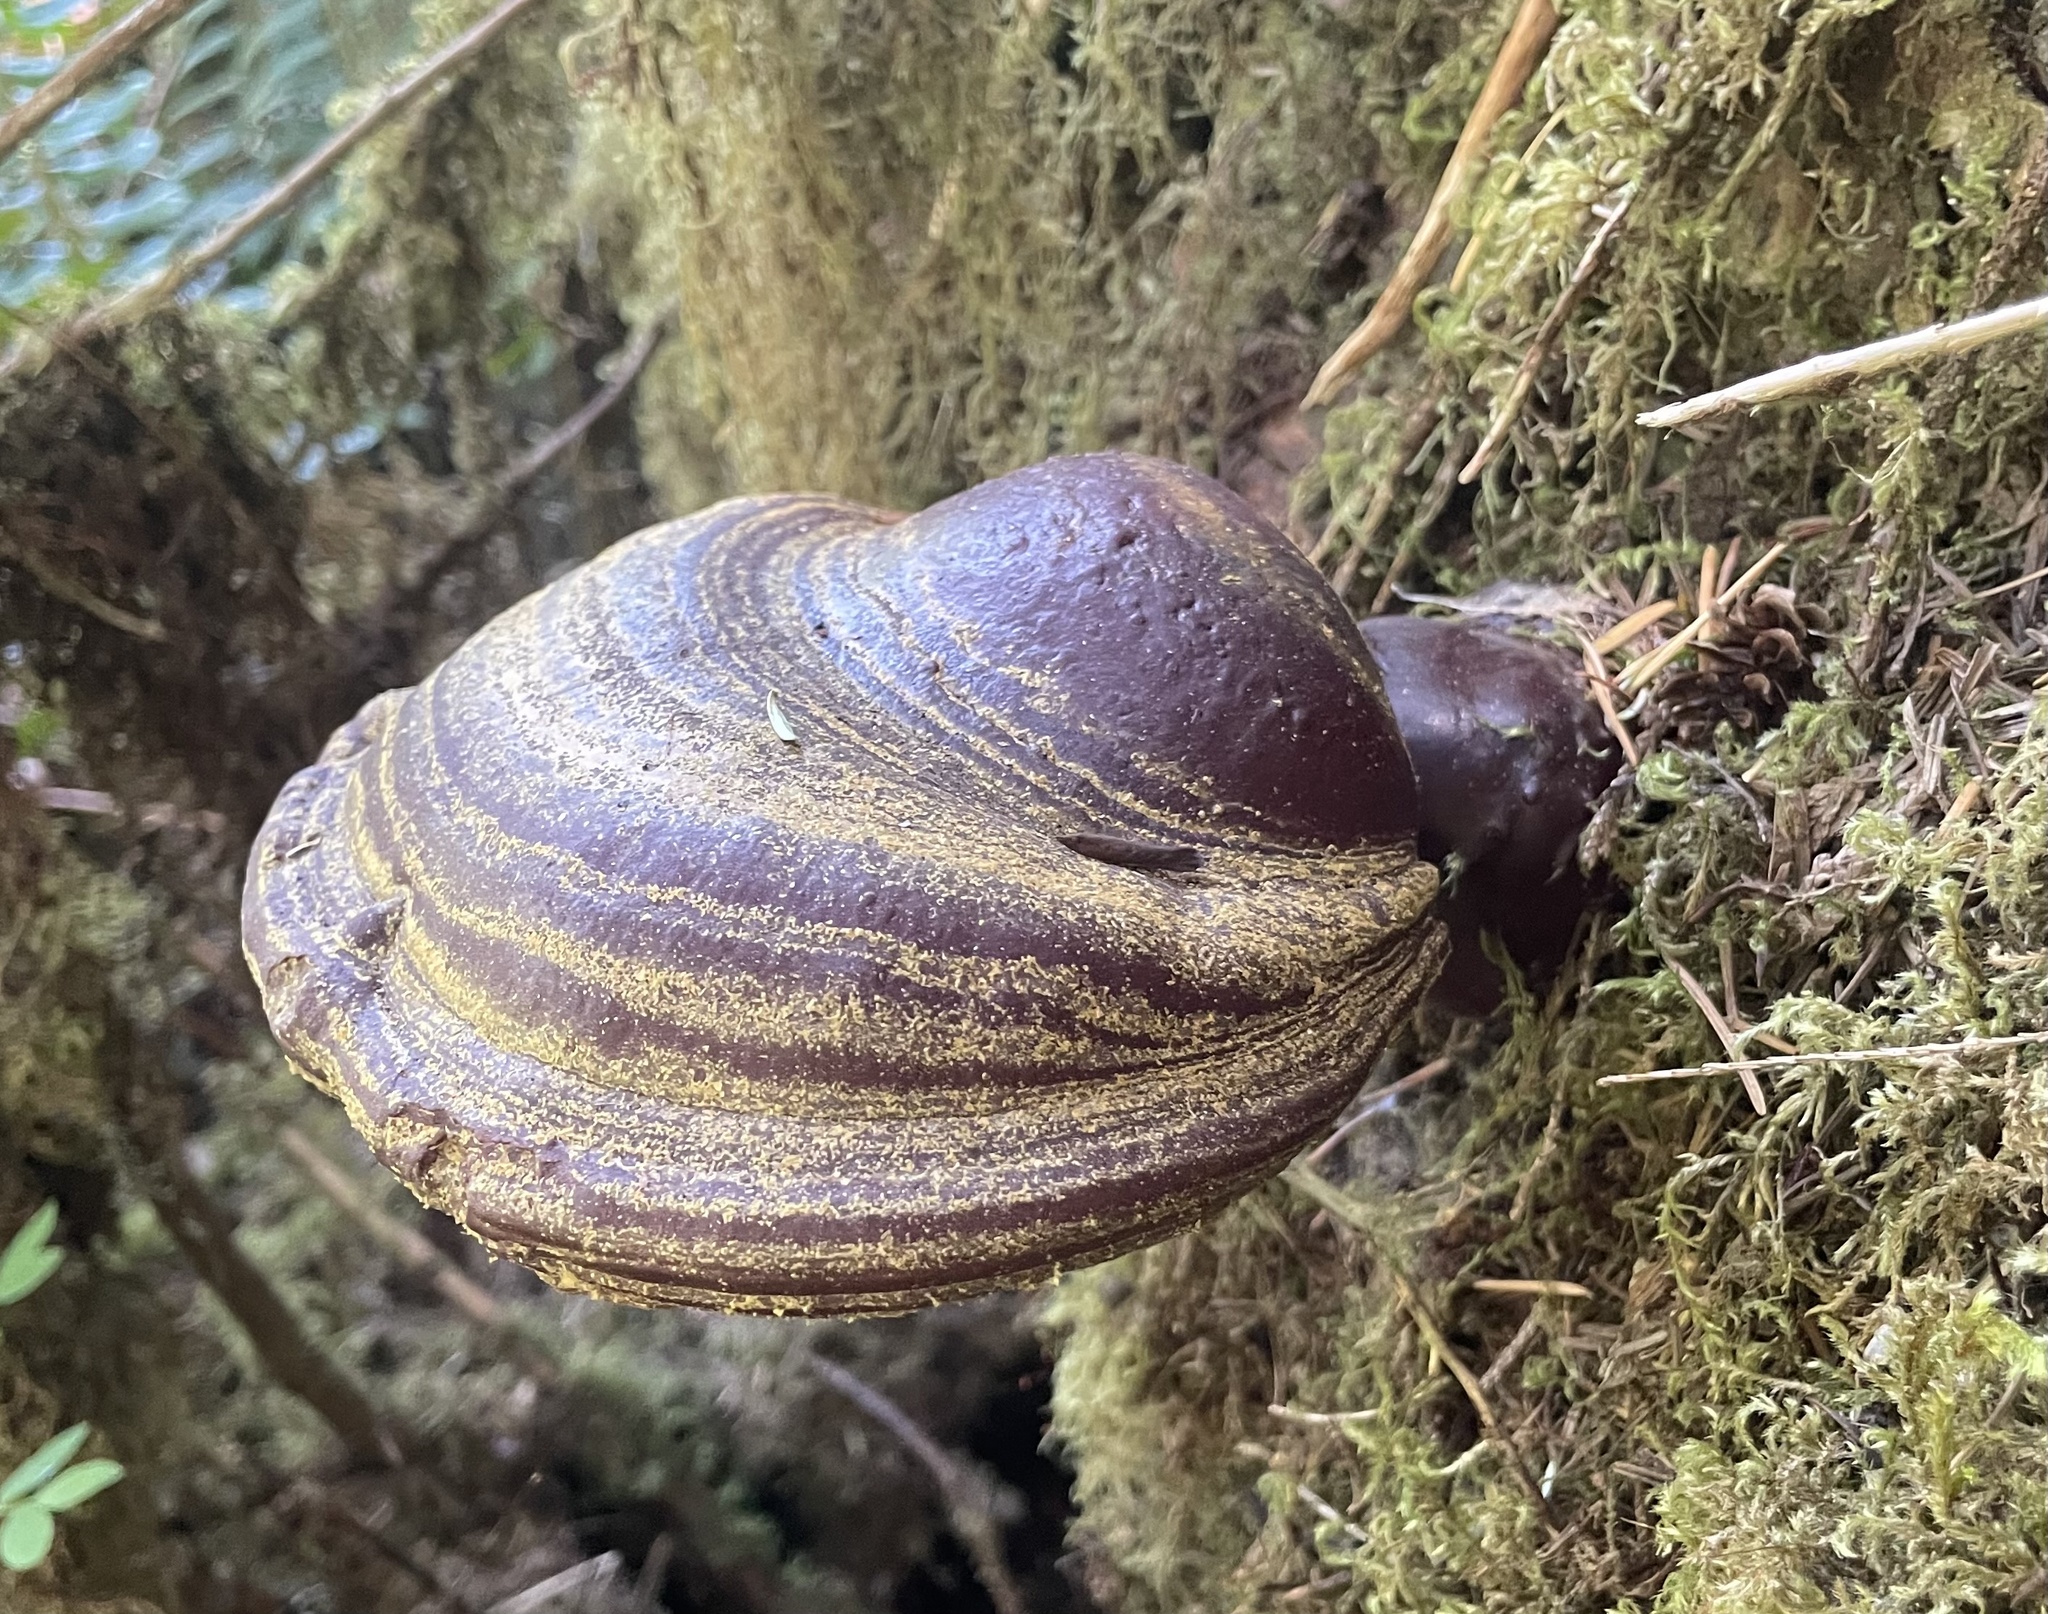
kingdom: Fungi
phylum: Basidiomycota
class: Agaricomycetes
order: Polyporales
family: Polyporaceae
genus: Ganoderma
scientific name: Ganoderma oregonense
